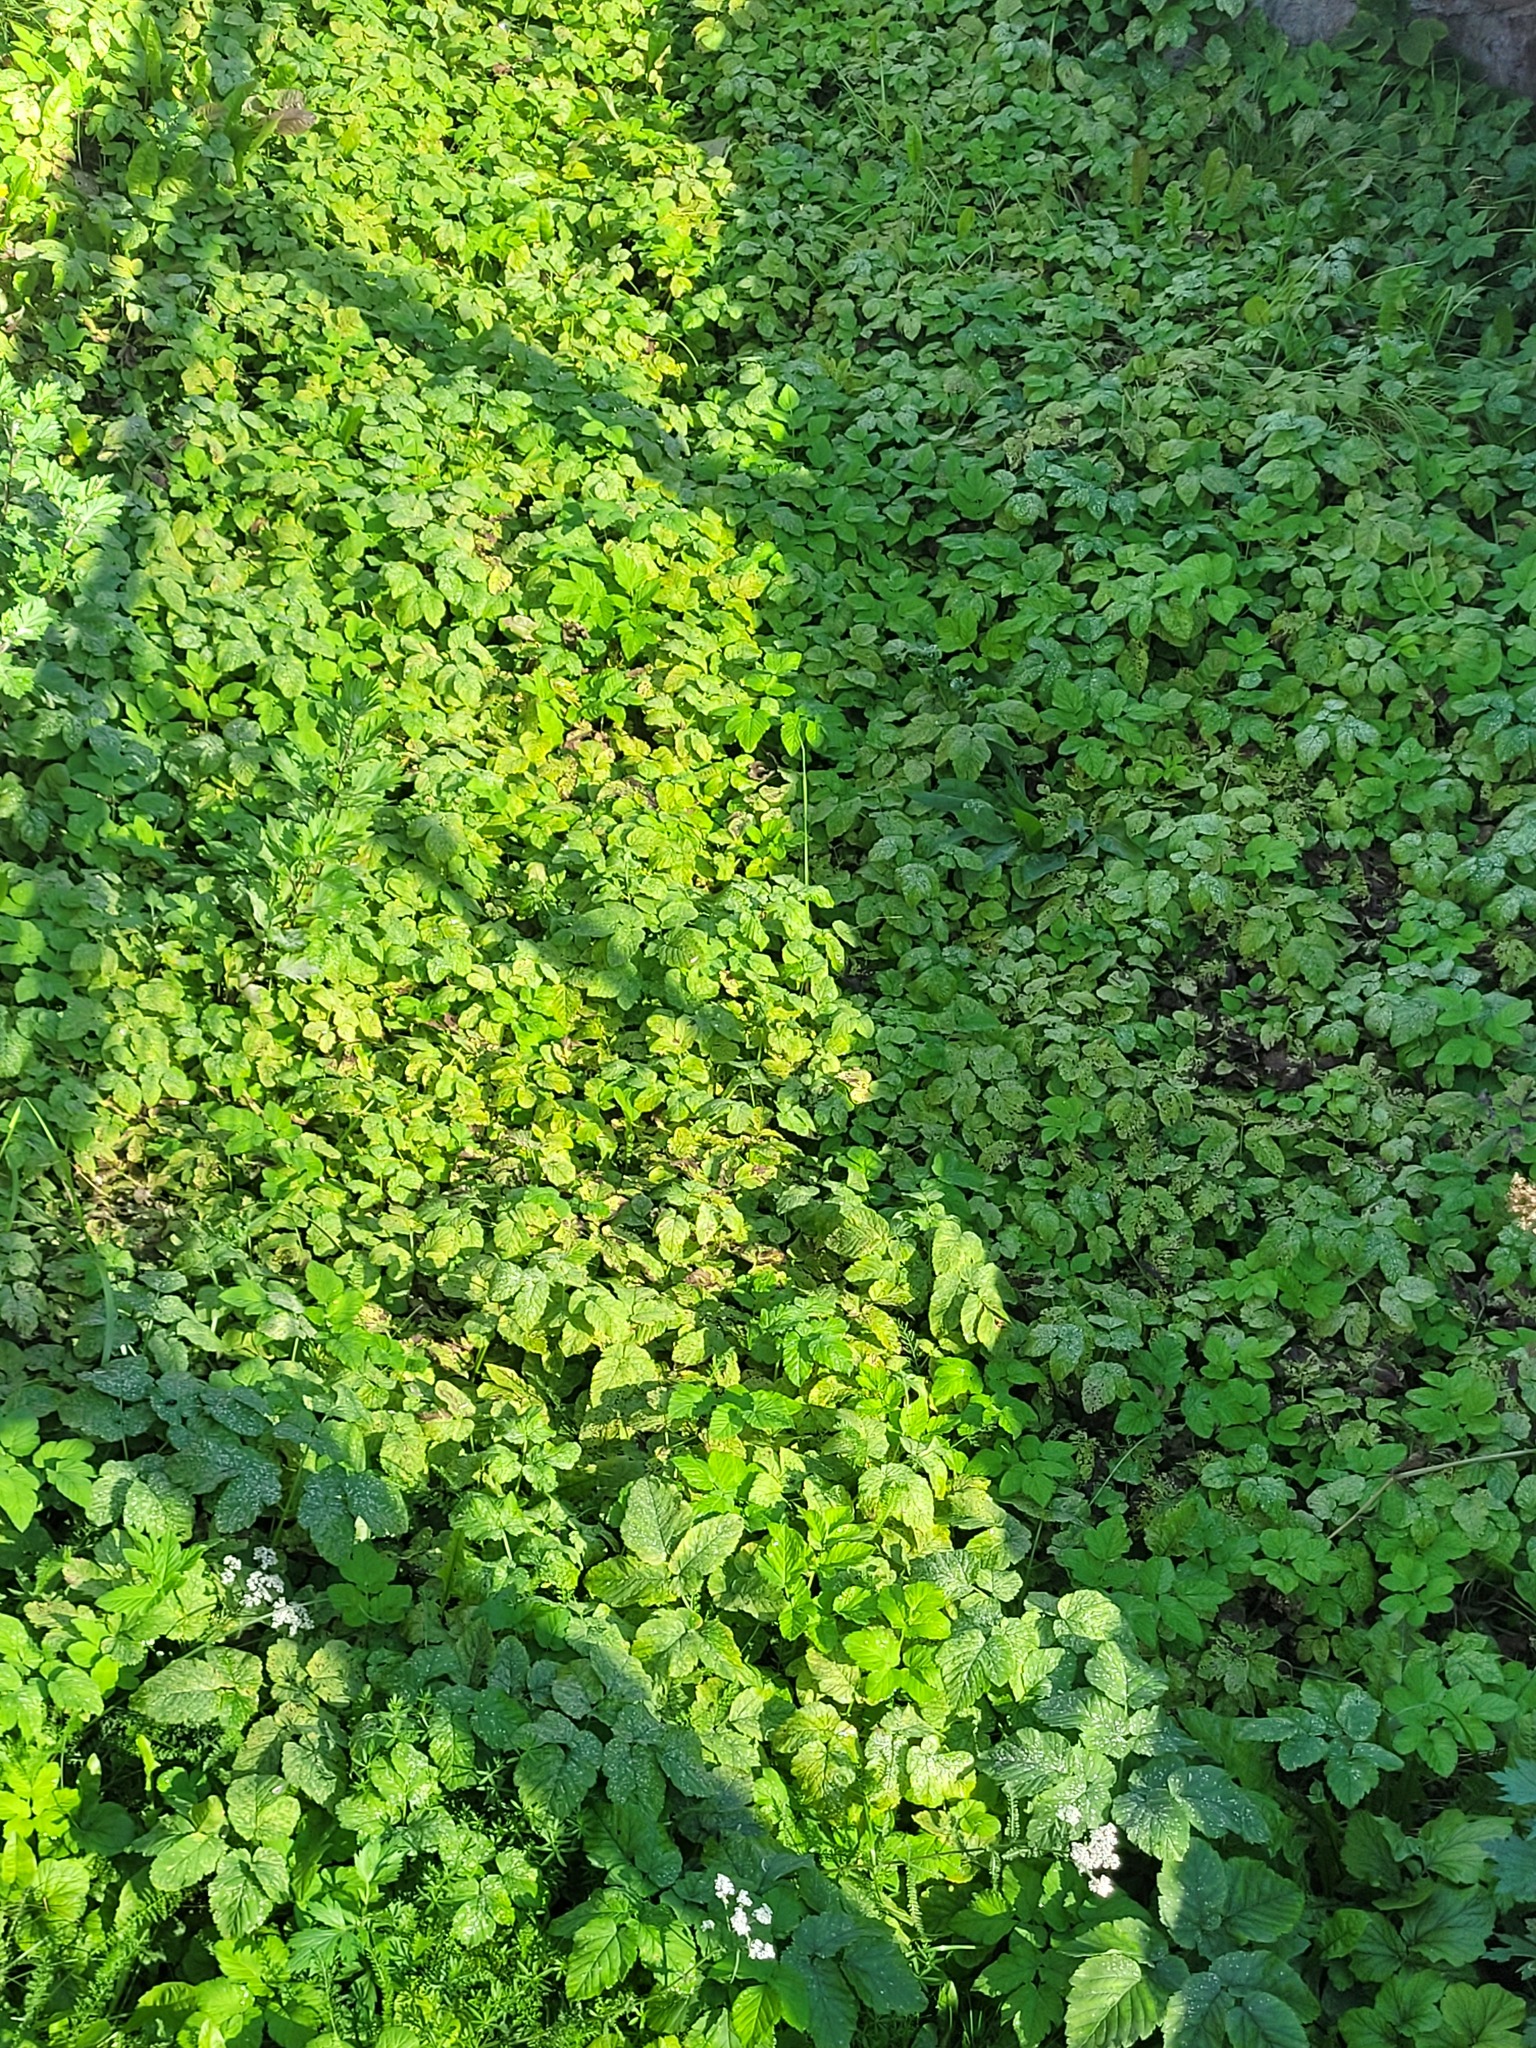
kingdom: Plantae
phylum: Tracheophyta
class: Magnoliopsida
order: Apiales
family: Apiaceae
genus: Aegopodium
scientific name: Aegopodium podagraria
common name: Ground-elder
